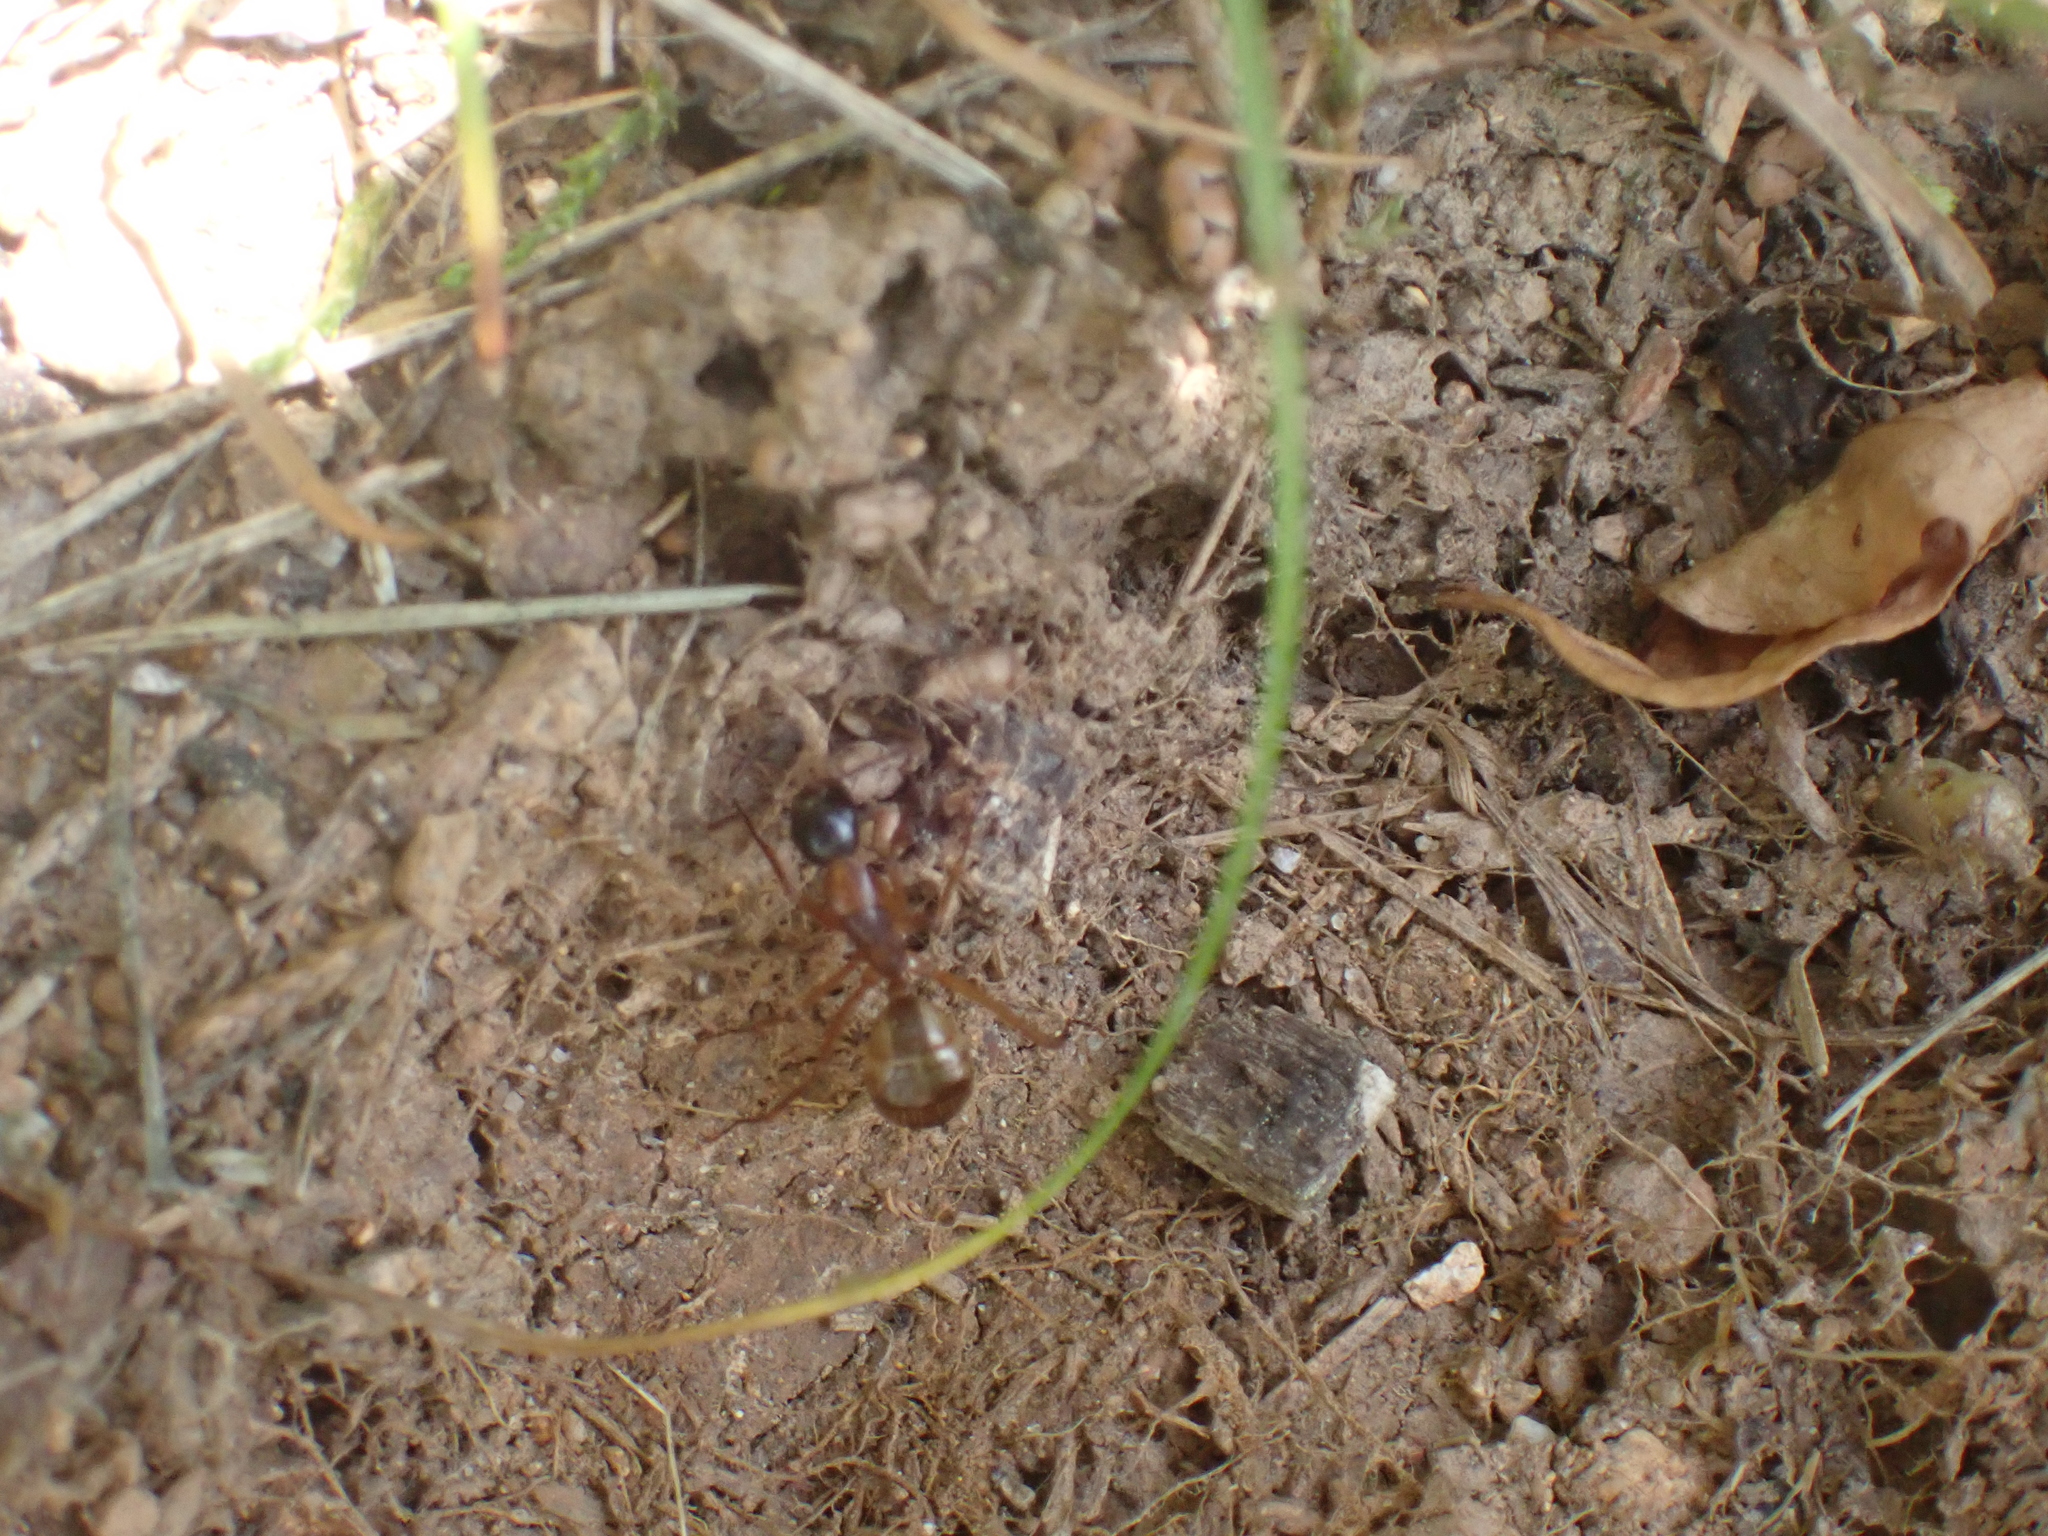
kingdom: Animalia
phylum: Arthropoda
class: Insecta
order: Hymenoptera
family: Formicidae
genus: Camponotus
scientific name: Camponotus americanus
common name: American carpenter ant
